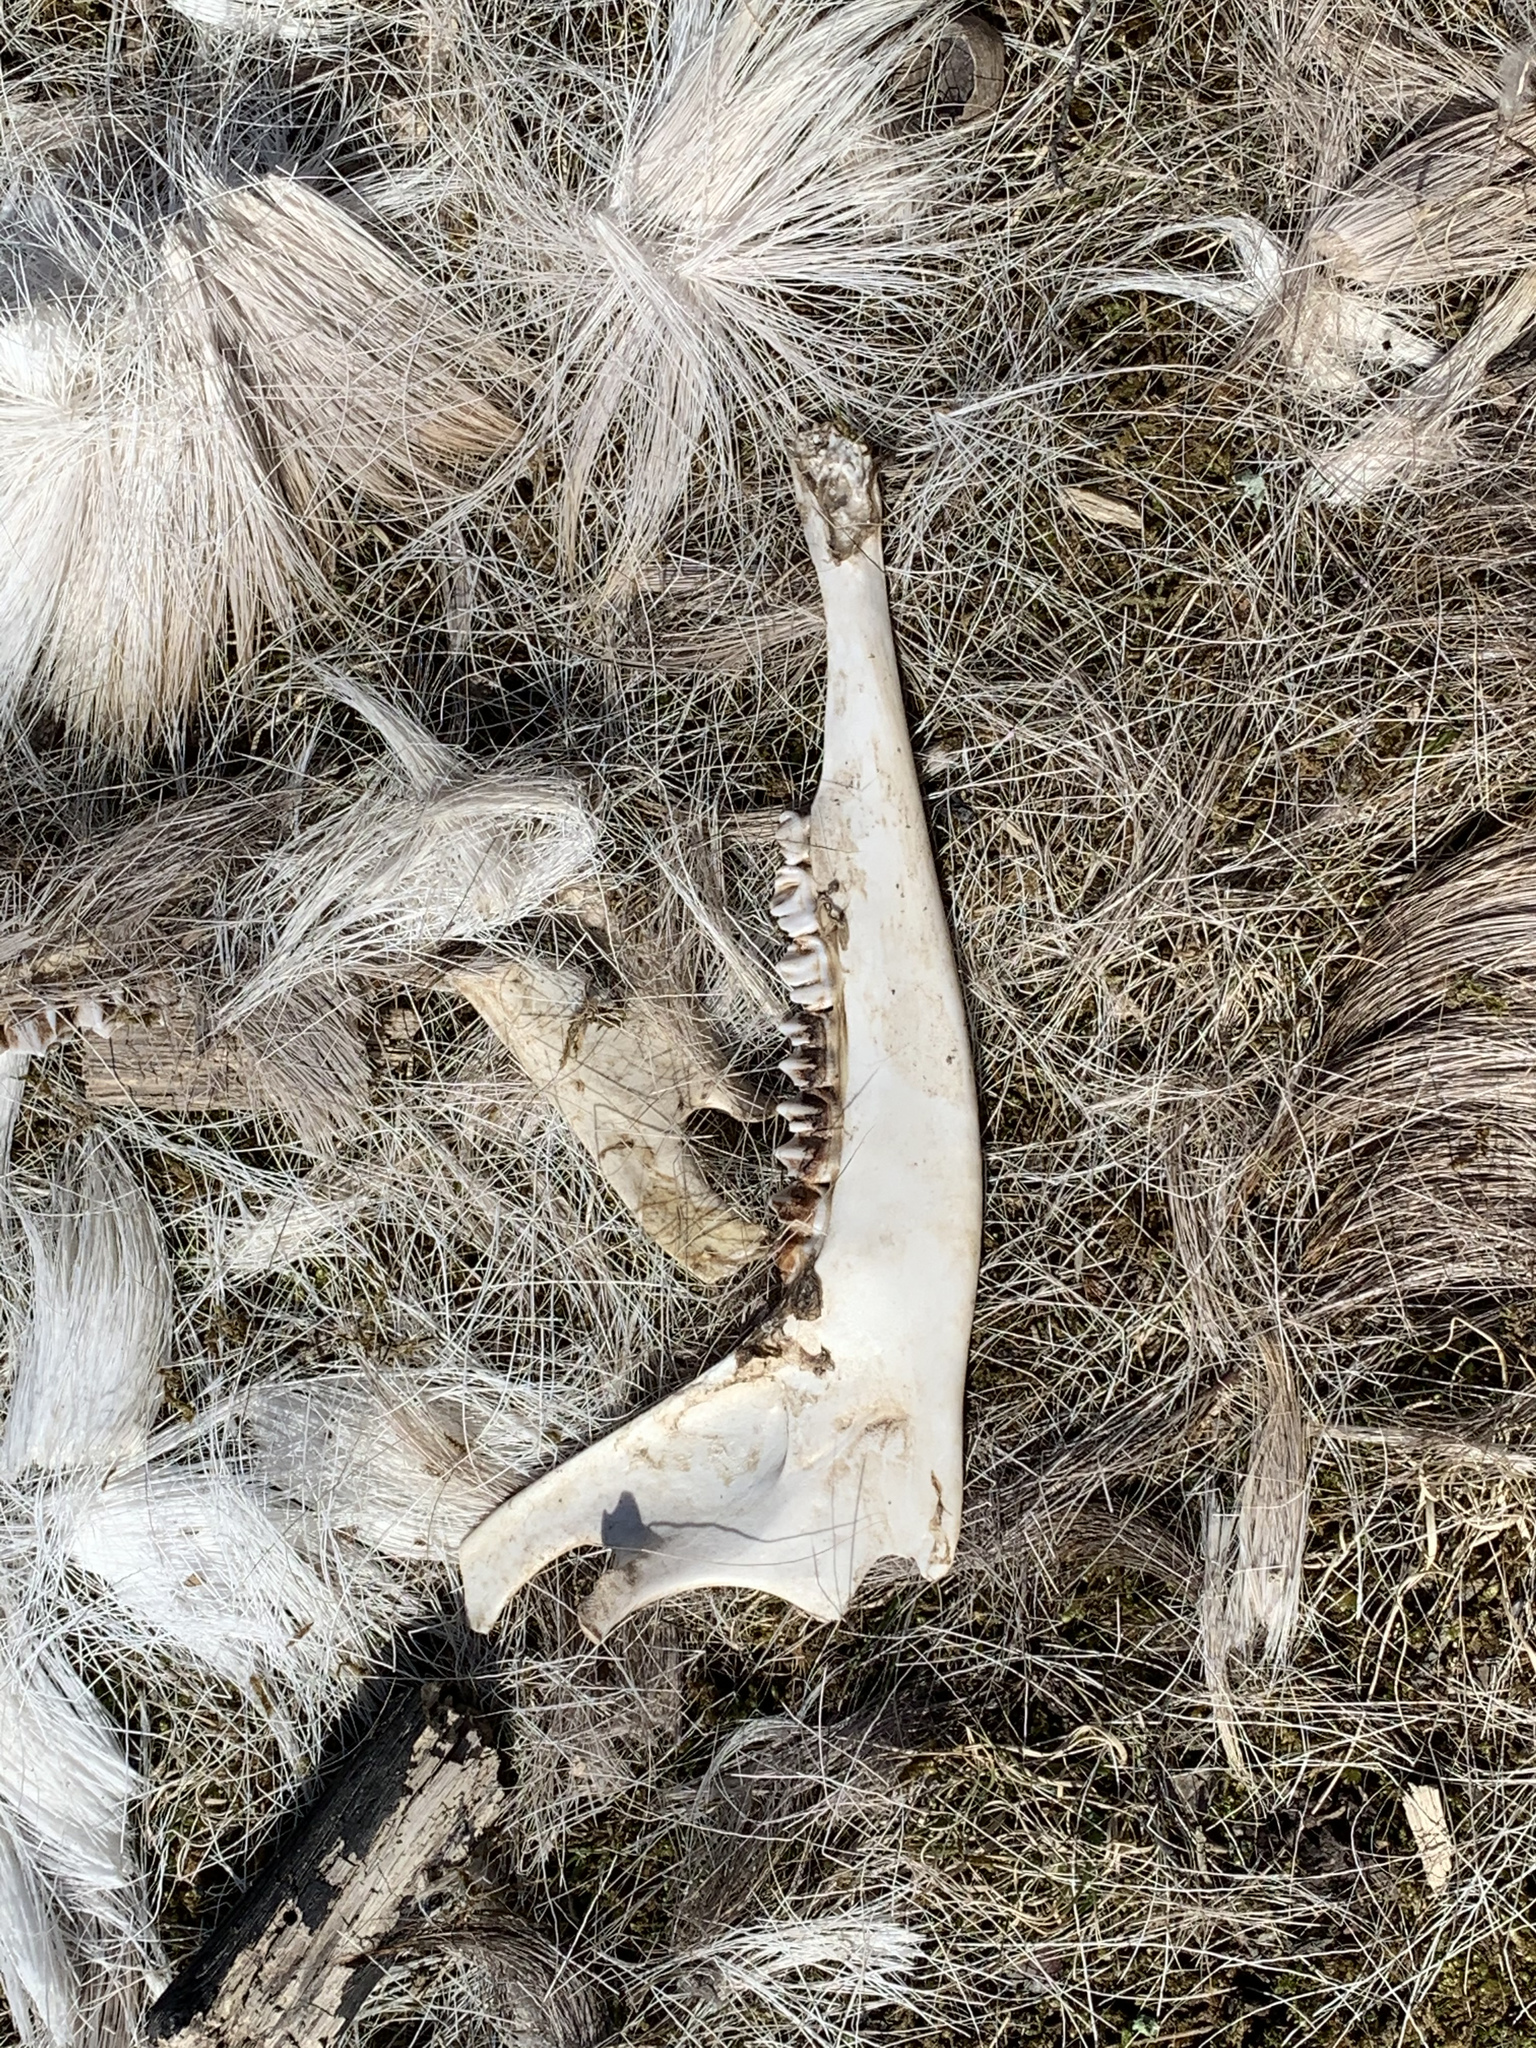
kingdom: Animalia
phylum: Chordata
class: Mammalia
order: Artiodactyla
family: Cervidae
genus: Odocoileus
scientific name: Odocoileus virginianus
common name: White-tailed deer
